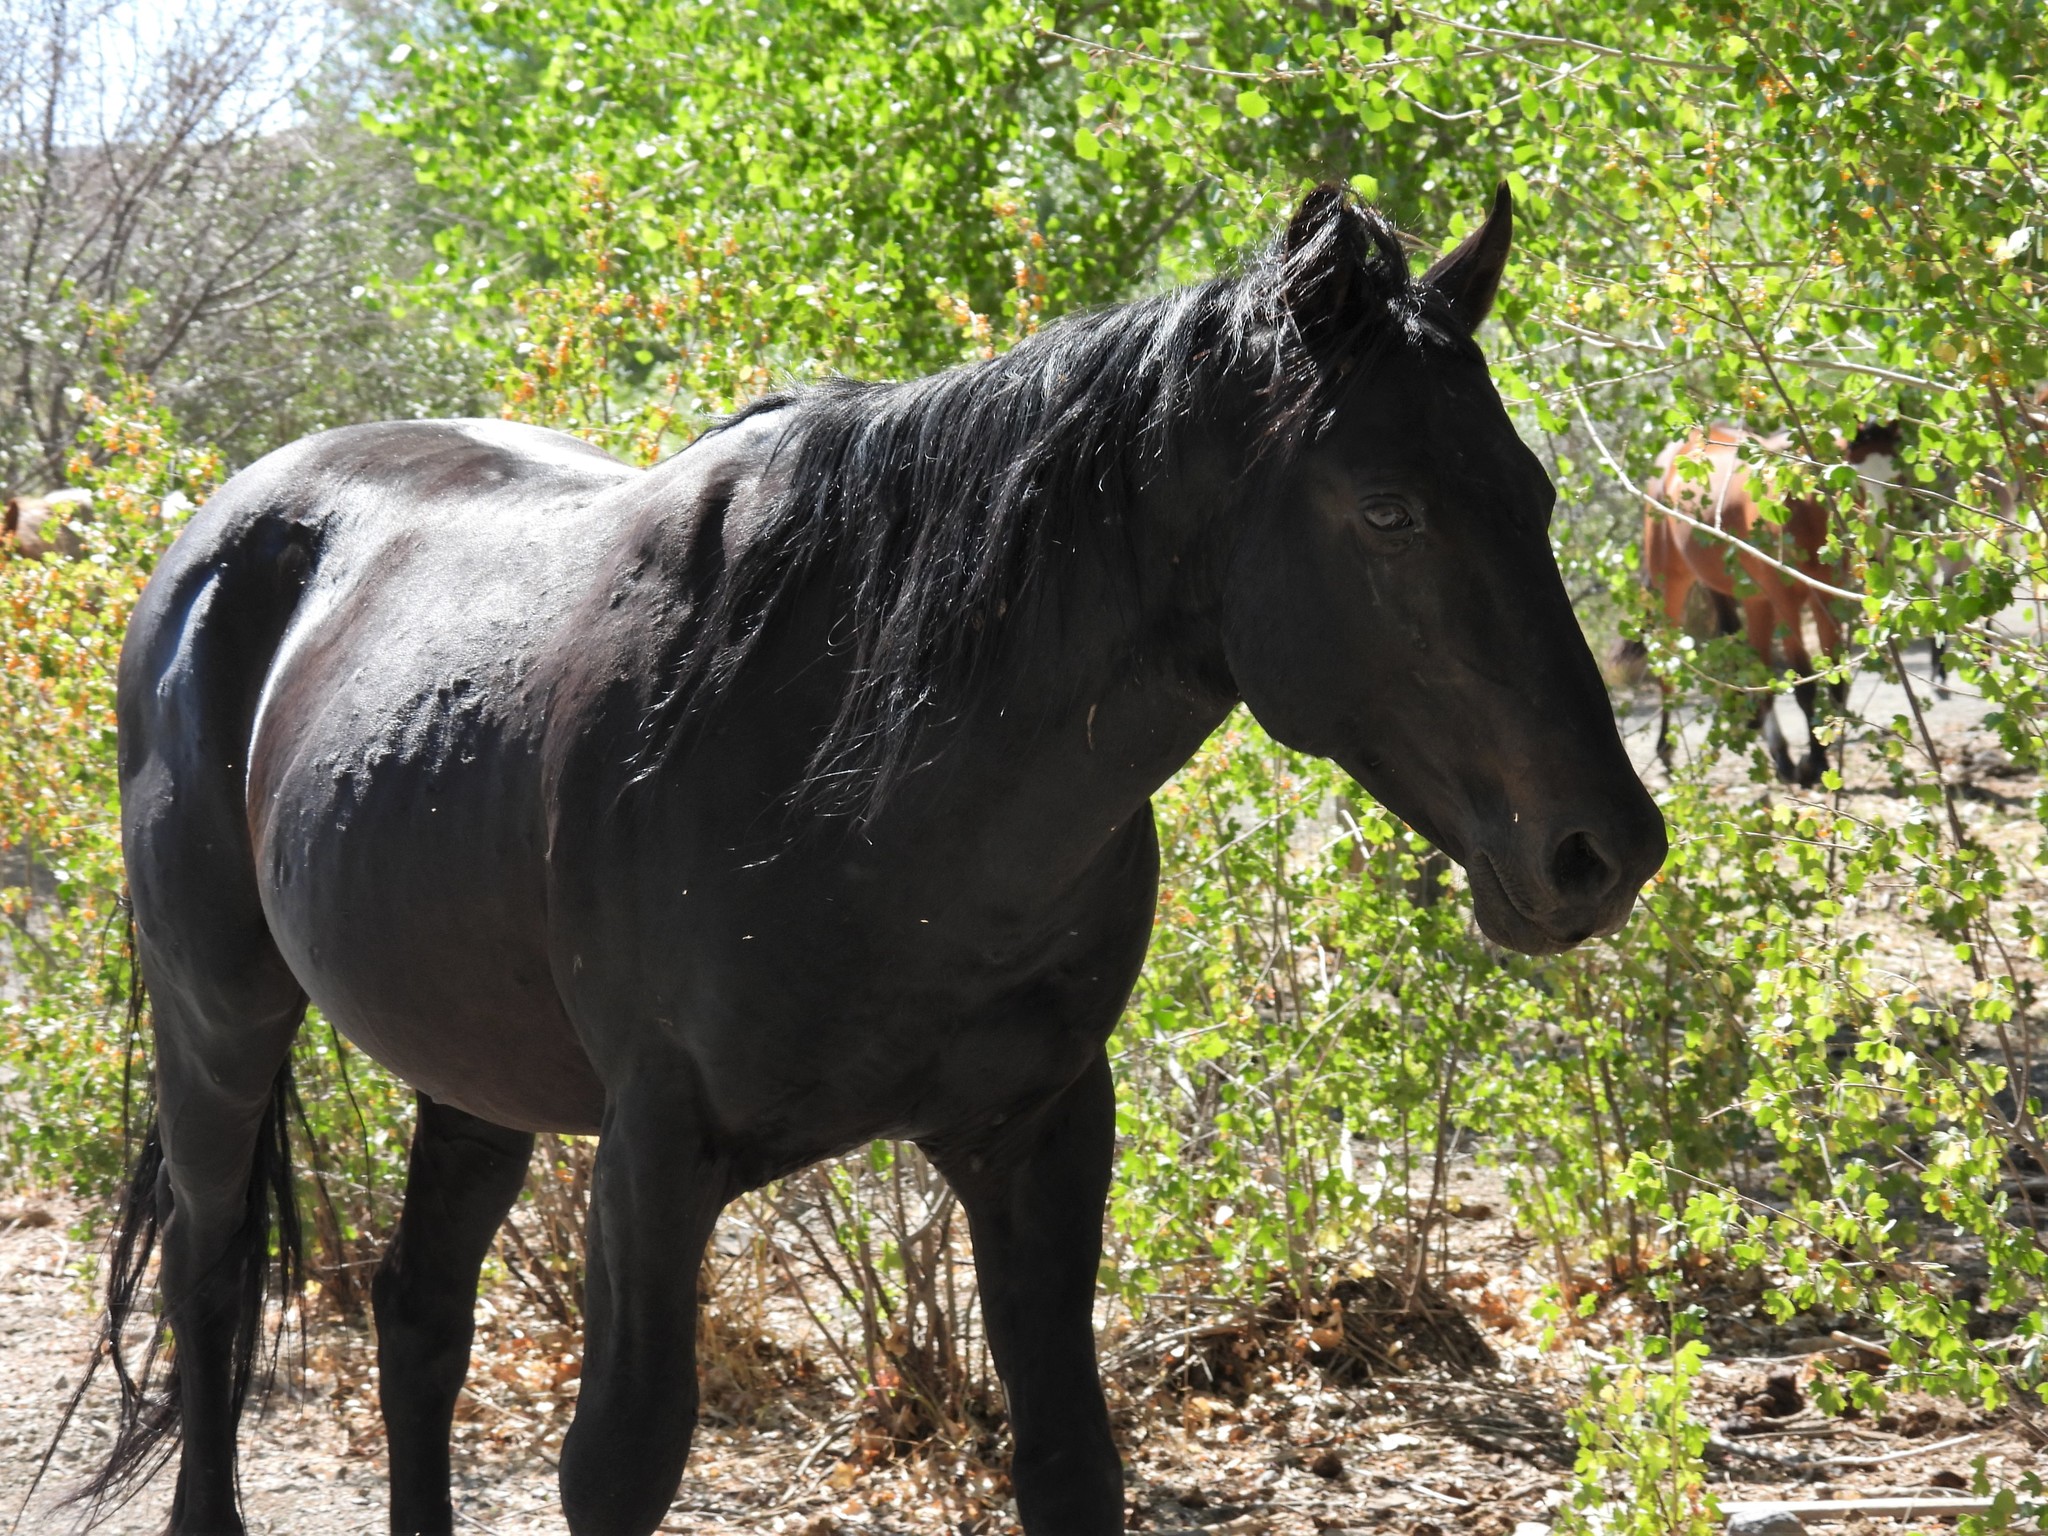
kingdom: Animalia
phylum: Chordata
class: Mammalia
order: Perissodactyla
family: Equidae
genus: Equus
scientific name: Equus caballus
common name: Horse
